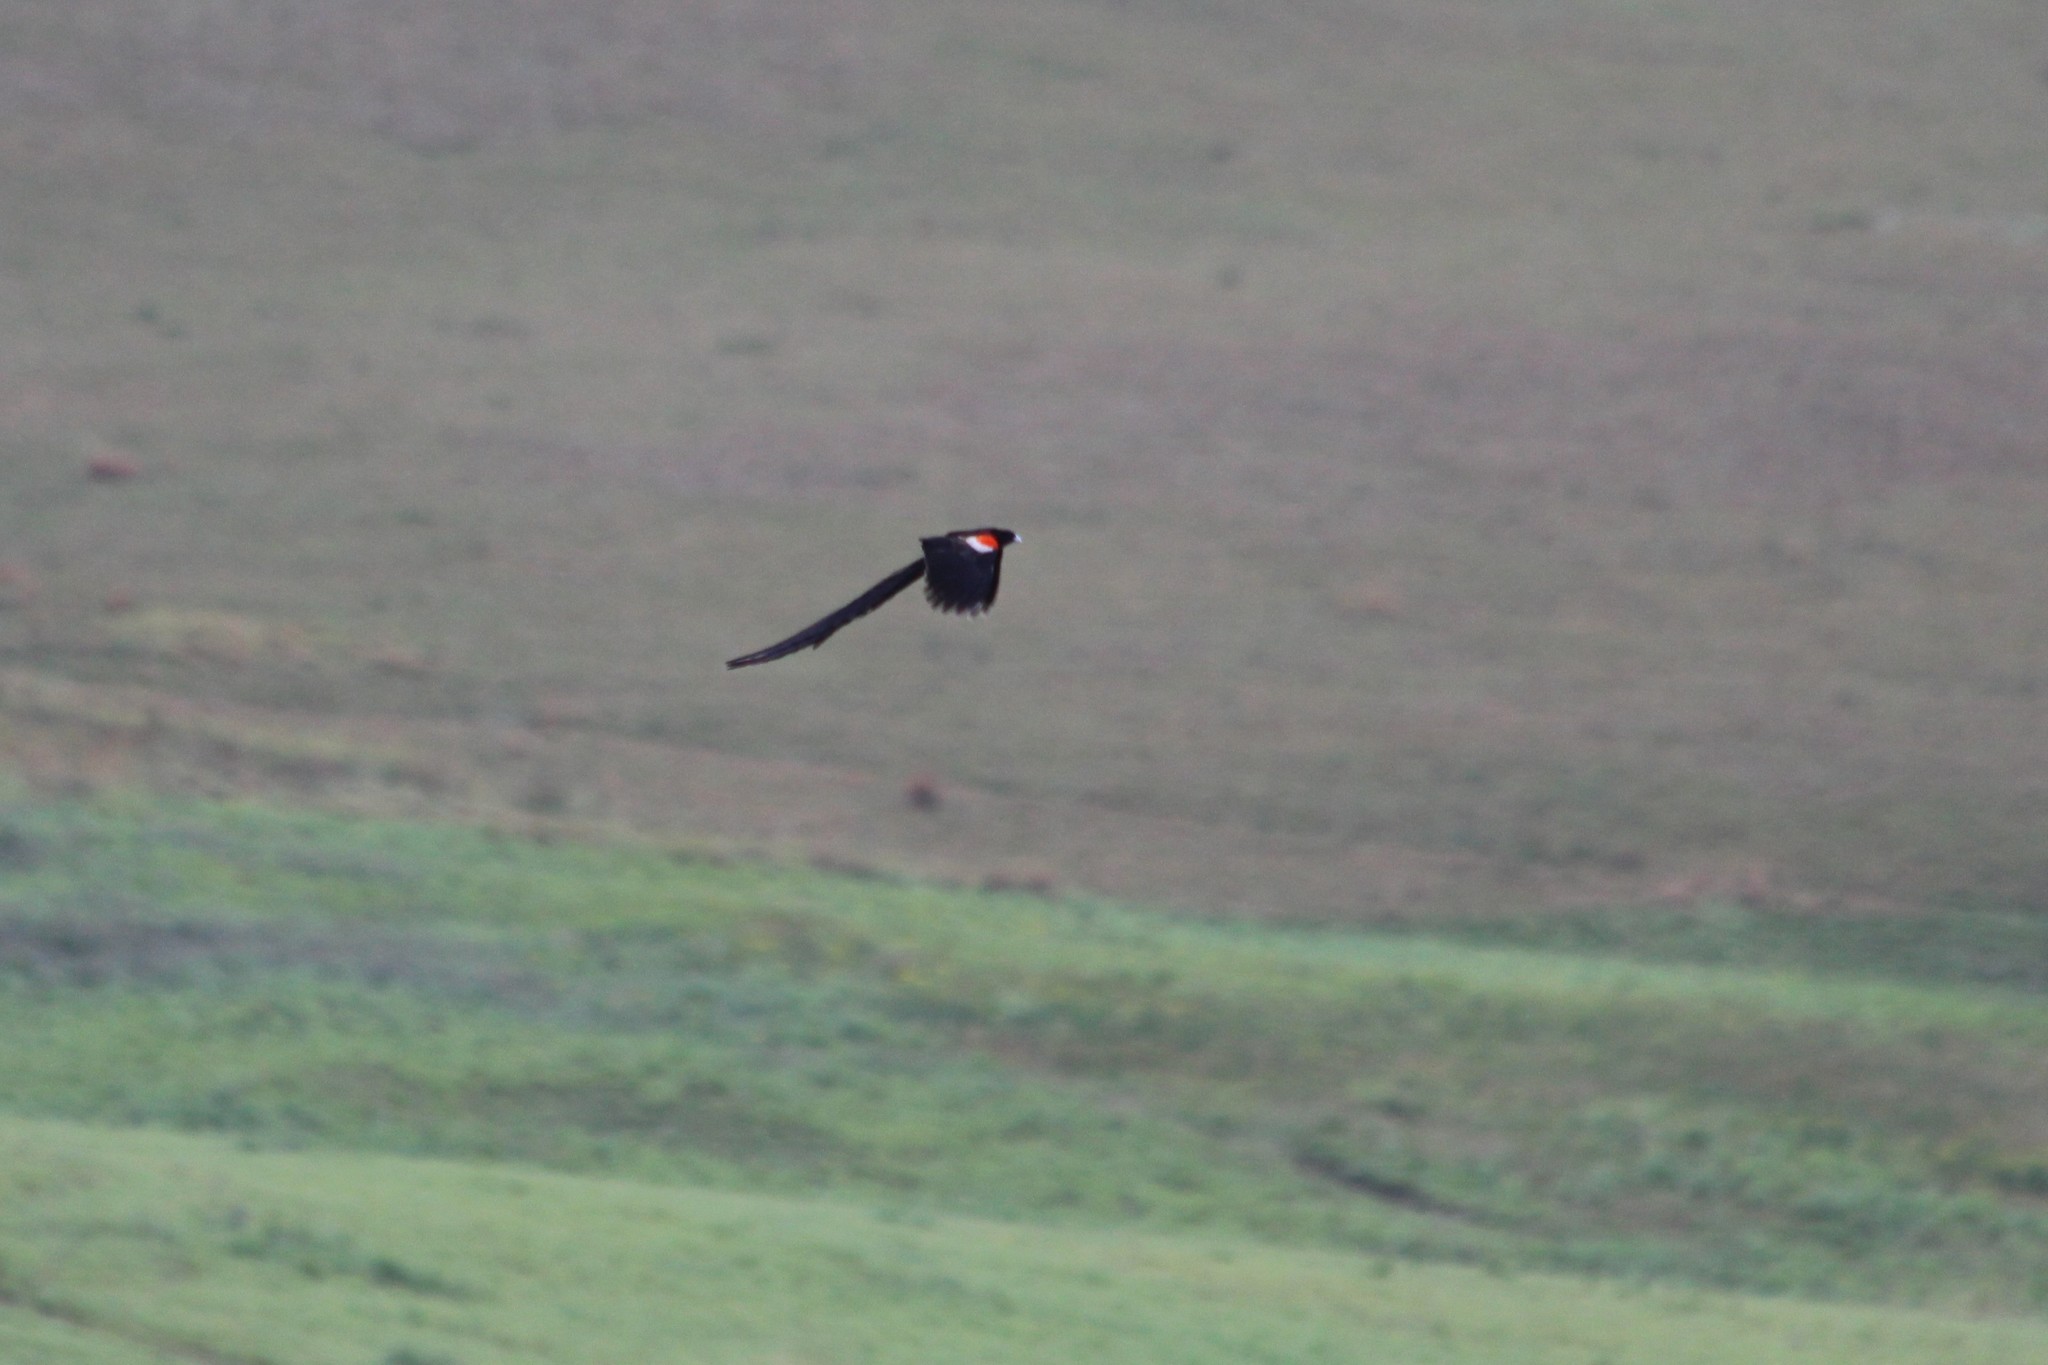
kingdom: Animalia
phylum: Chordata
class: Aves
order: Passeriformes
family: Ploceidae
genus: Euplectes
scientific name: Euplectes progne
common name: Long-tailed widowbird
